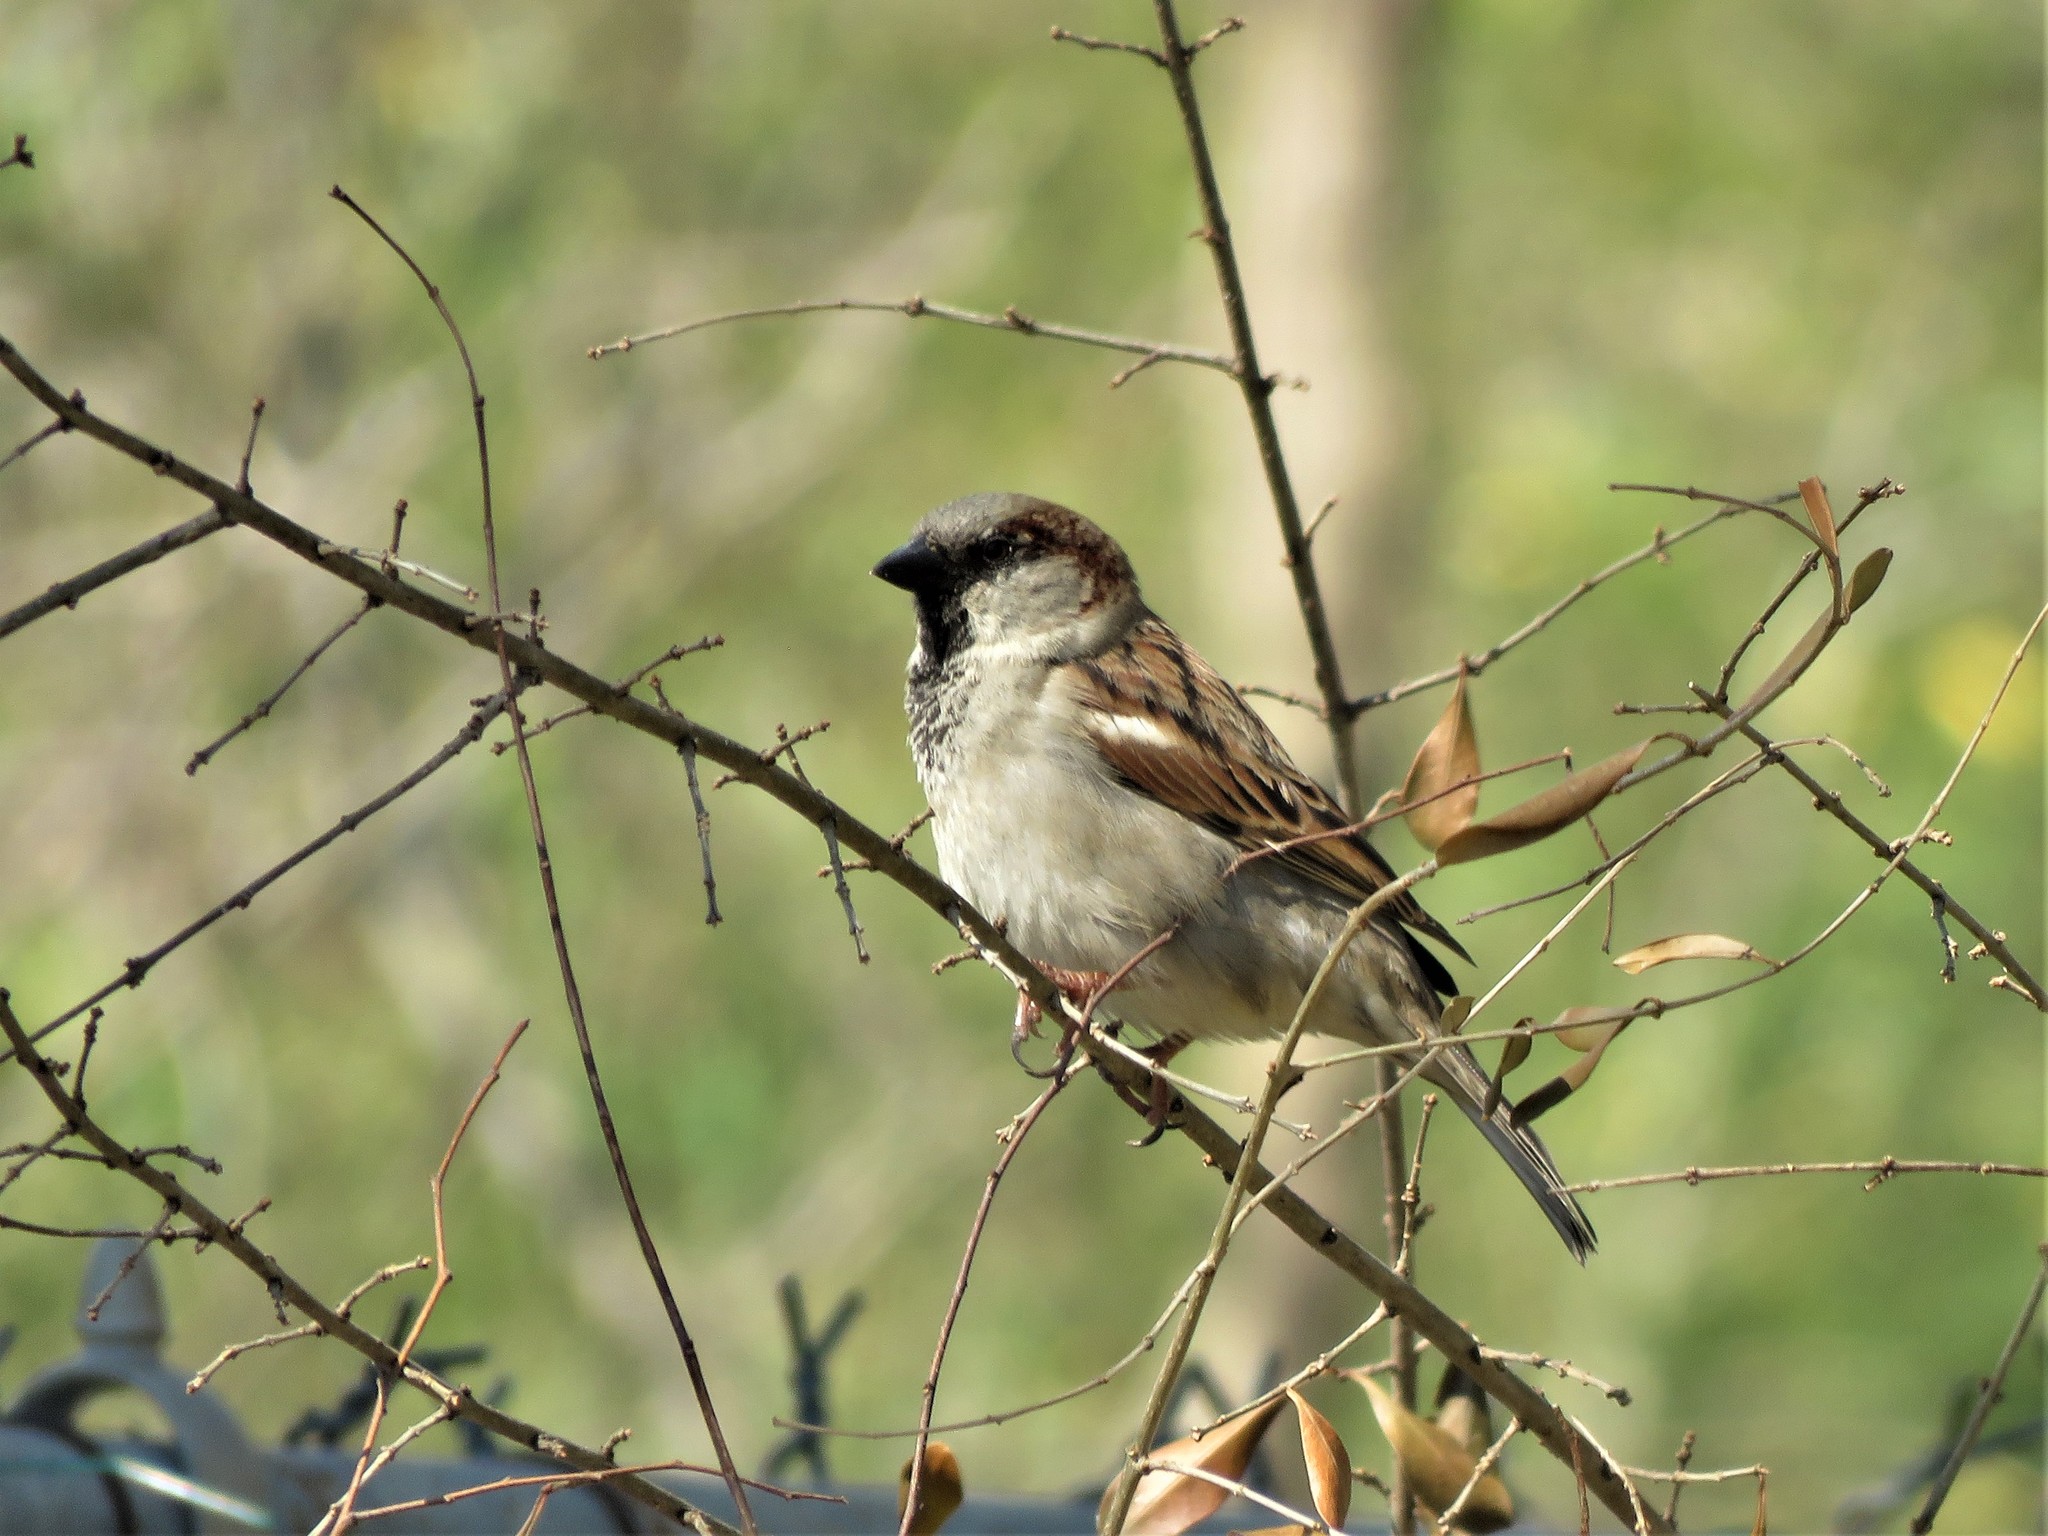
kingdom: Animalia
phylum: Chordata
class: Aves
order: Passeriformes
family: Passeridae
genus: Passer
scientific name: Passer domesticus
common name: House sparrow
